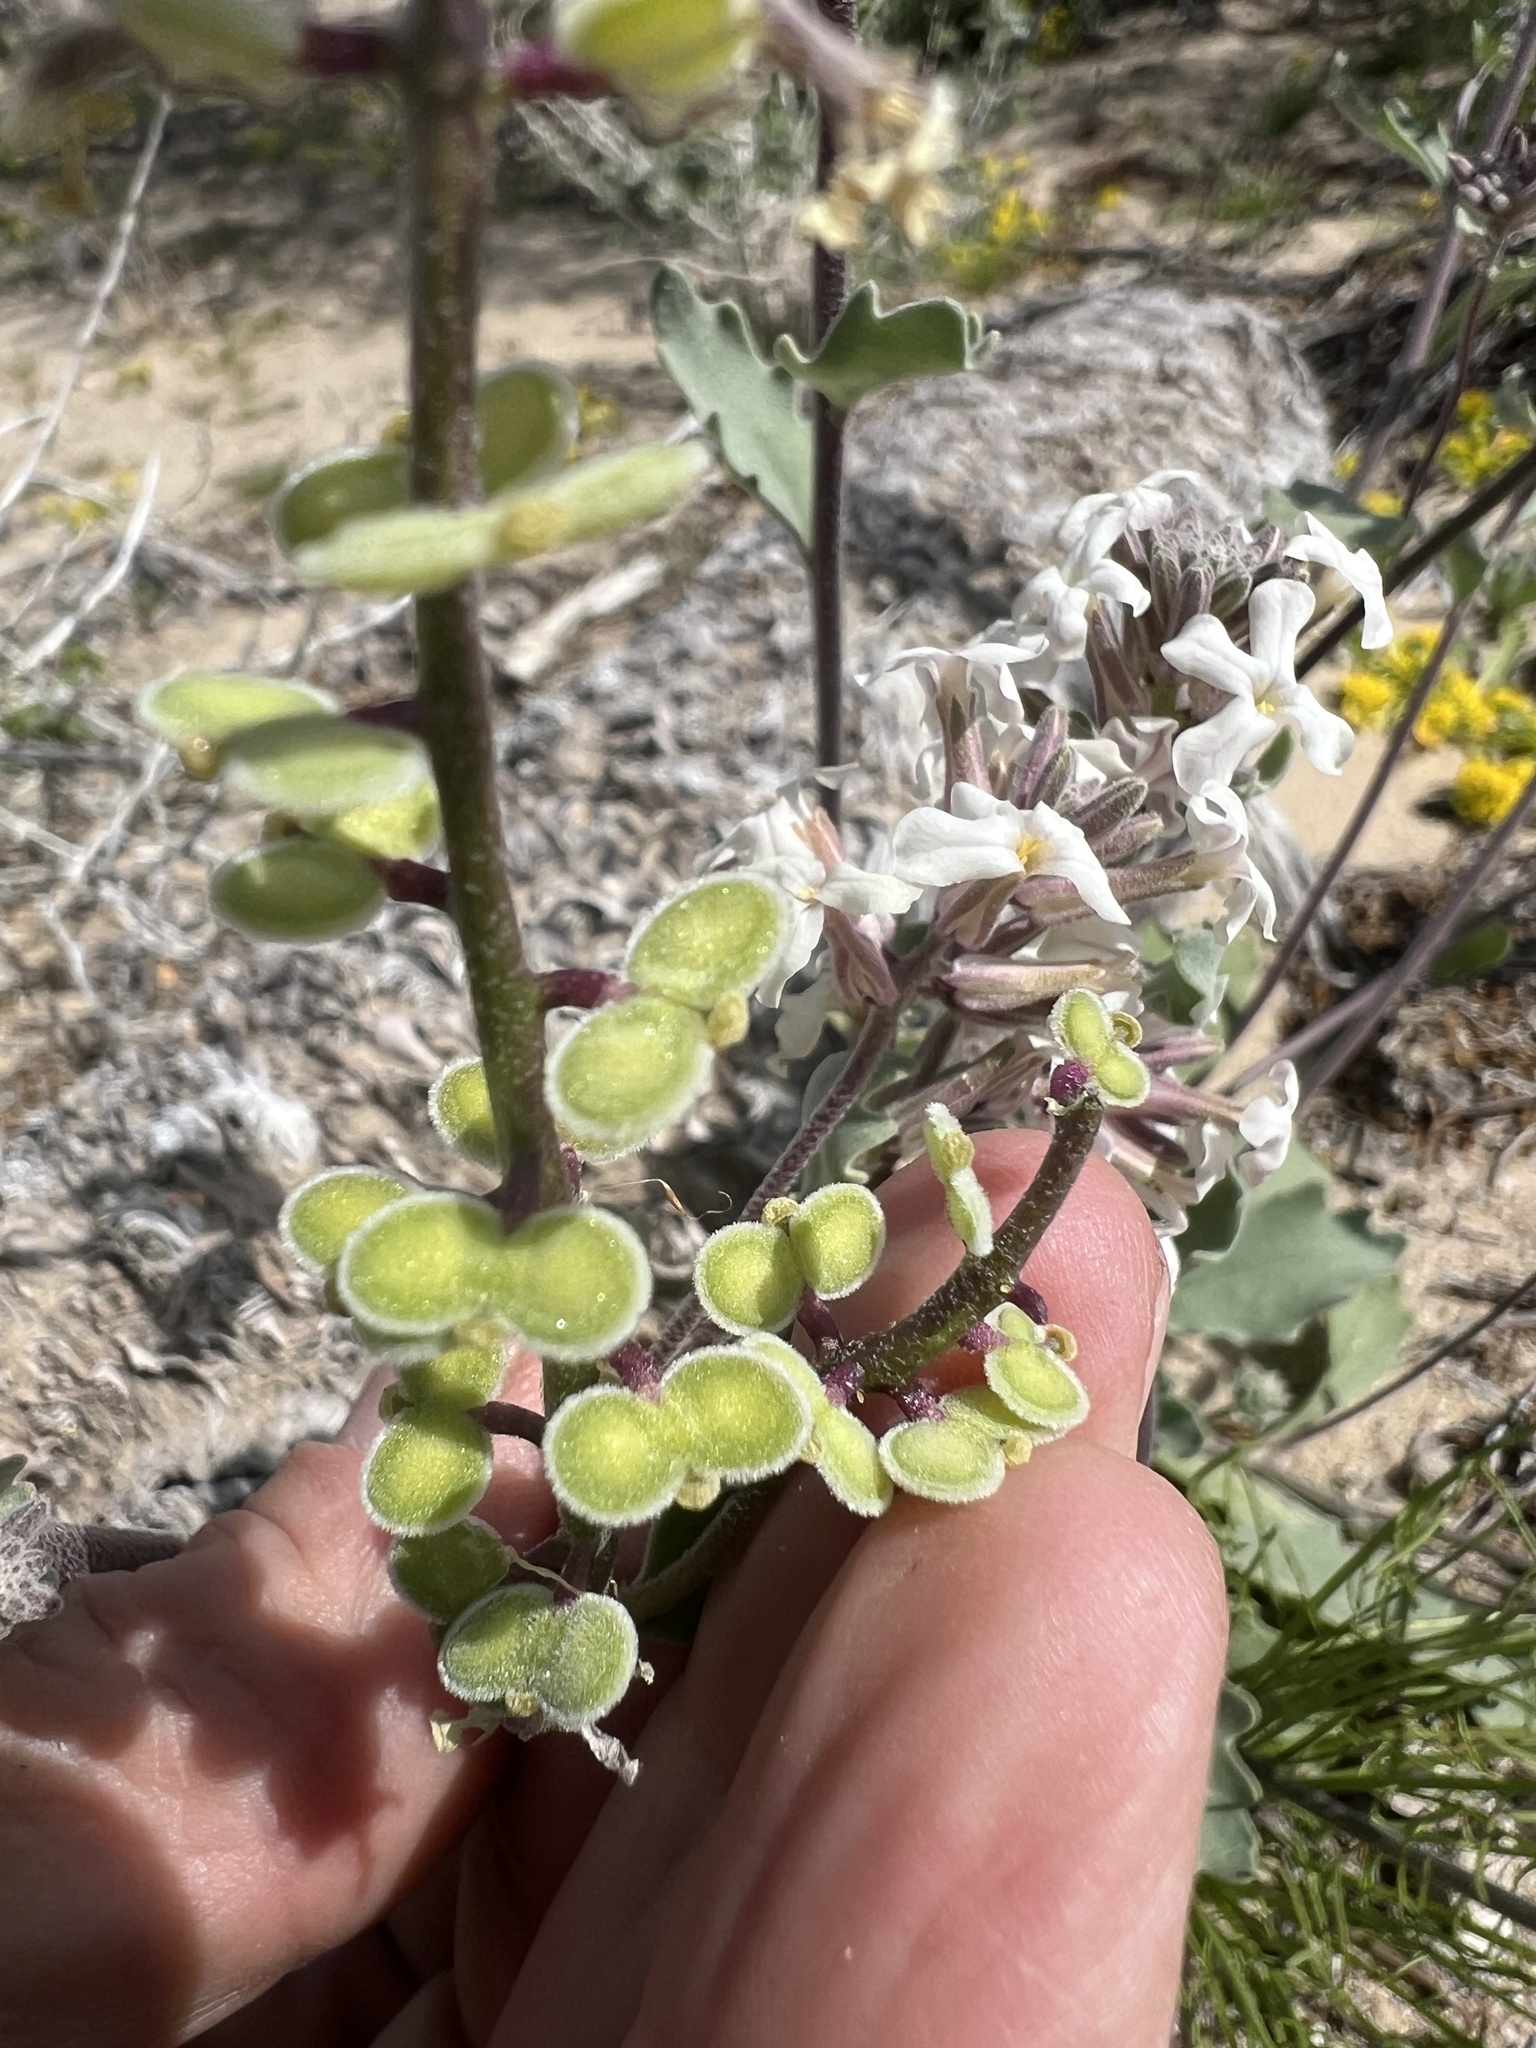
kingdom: Plantae
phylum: Tracheophyta
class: Magnoliopsida
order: Brassicales
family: Brassicaceae
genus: Dithyrea
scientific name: Dithyrea californica
